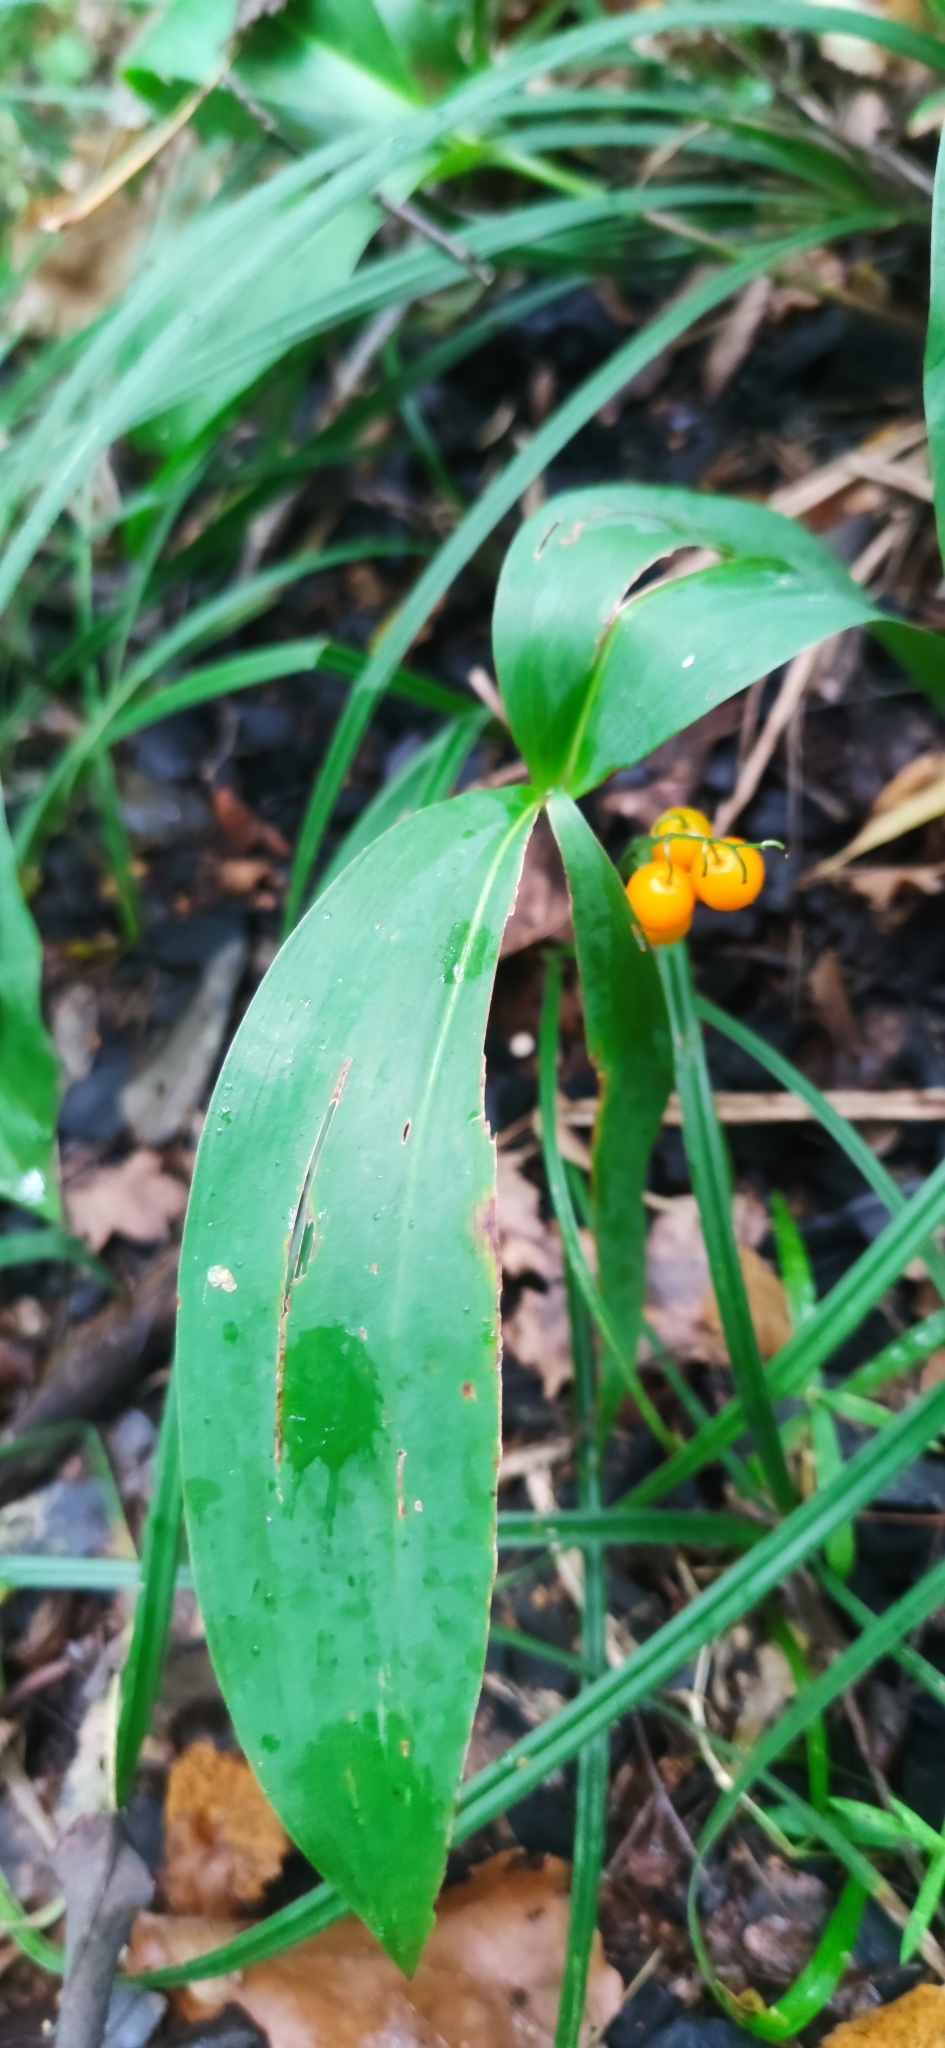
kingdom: Plantae
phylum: Tracheophyta
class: Liliopsida
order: Asparagales
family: Asparagaceae
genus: Convallaria
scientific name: Convallaria majalis
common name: Lily-of-the-valley
